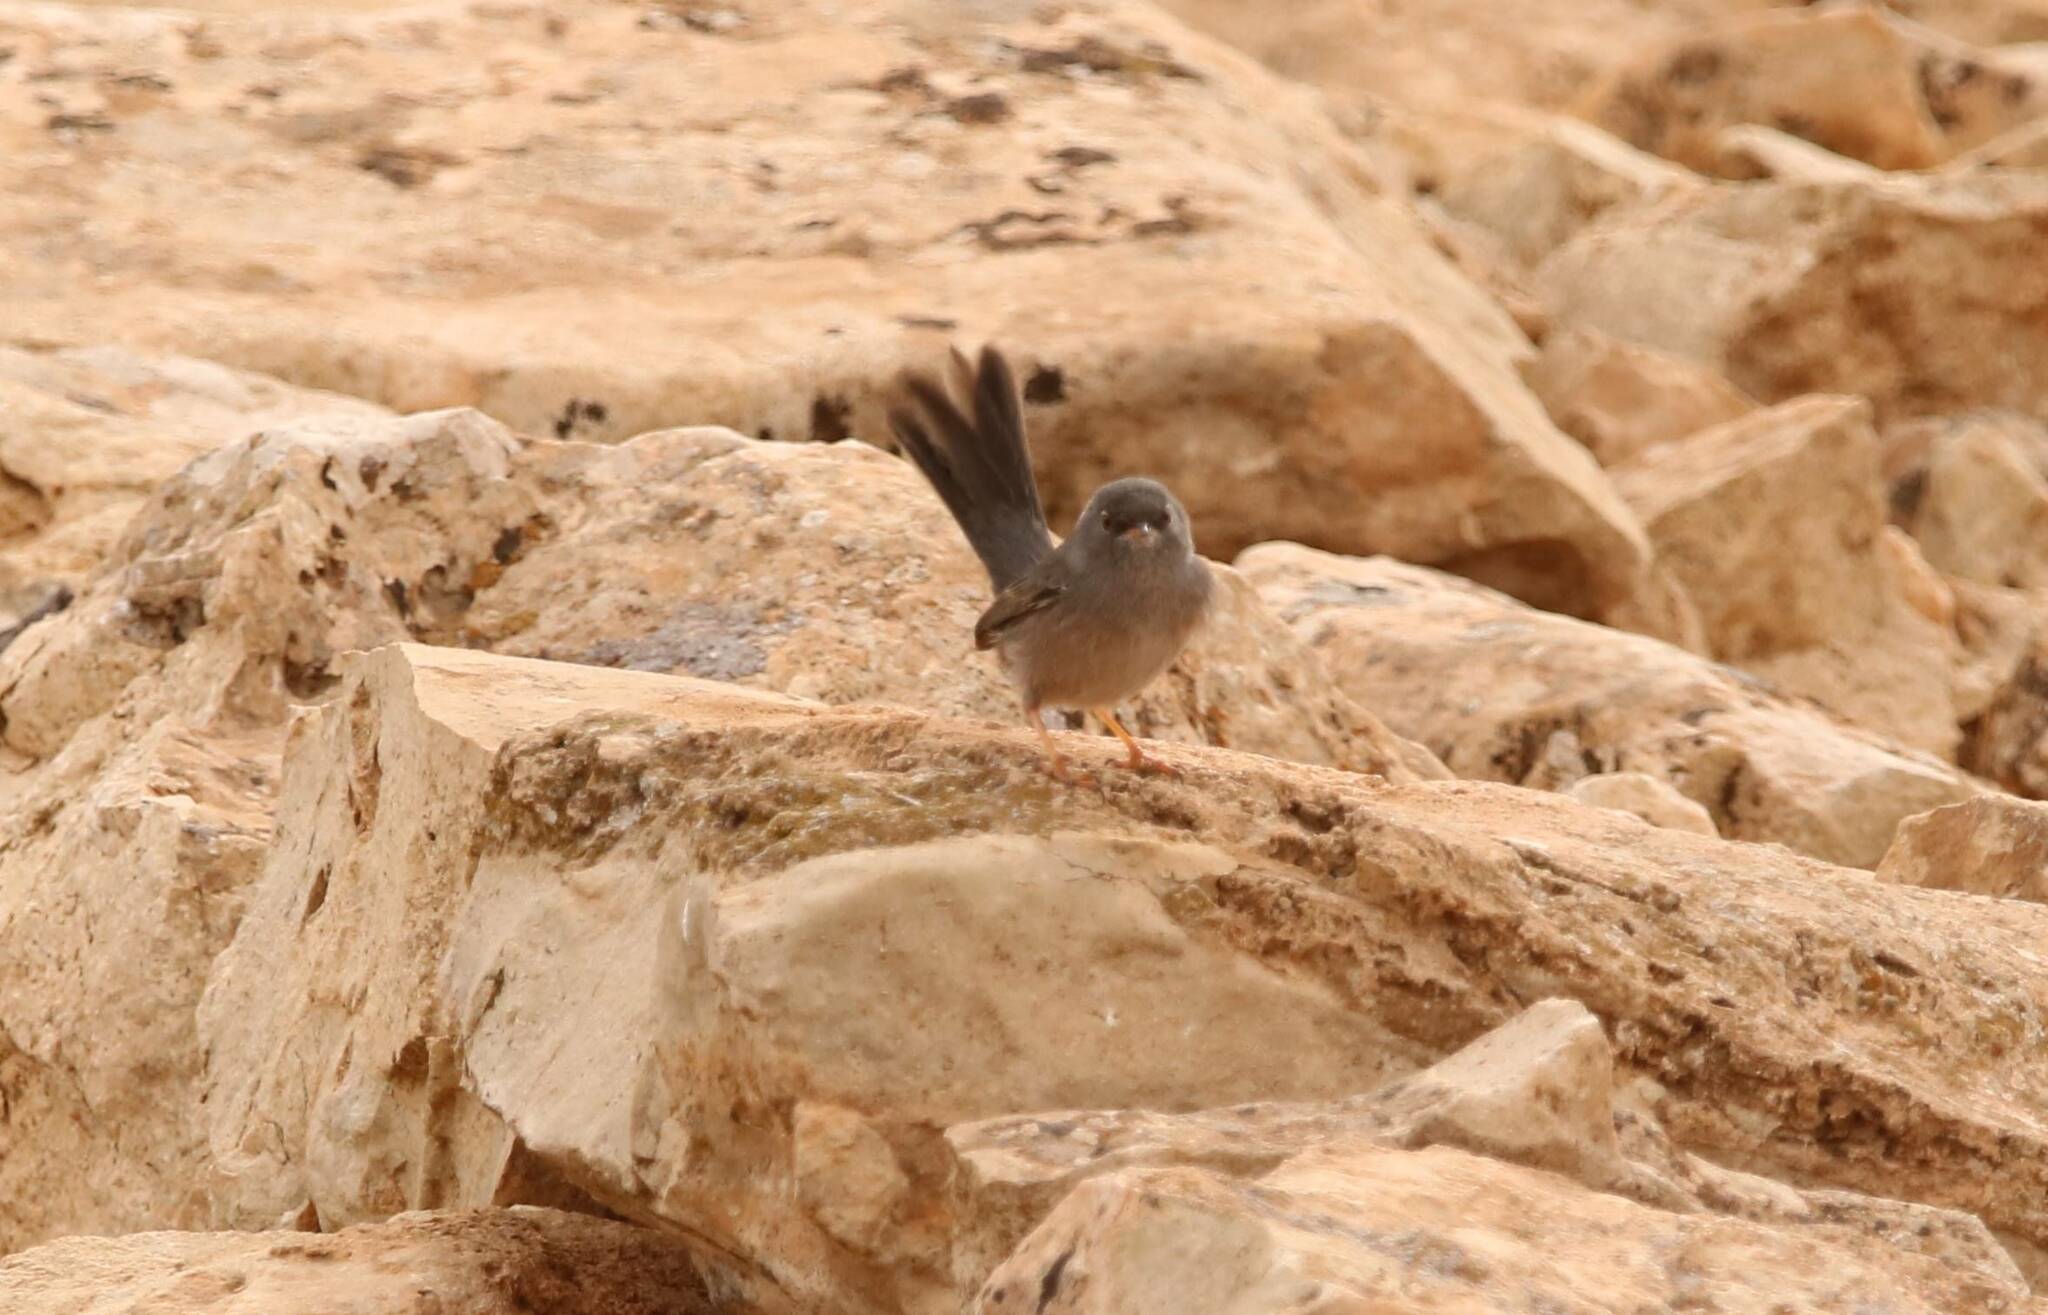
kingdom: Animalia
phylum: Chordata
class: Aves
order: Passeriformes
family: Sylviidae
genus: Sylvia
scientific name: Sylvia sarda
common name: Marmora's warbler
